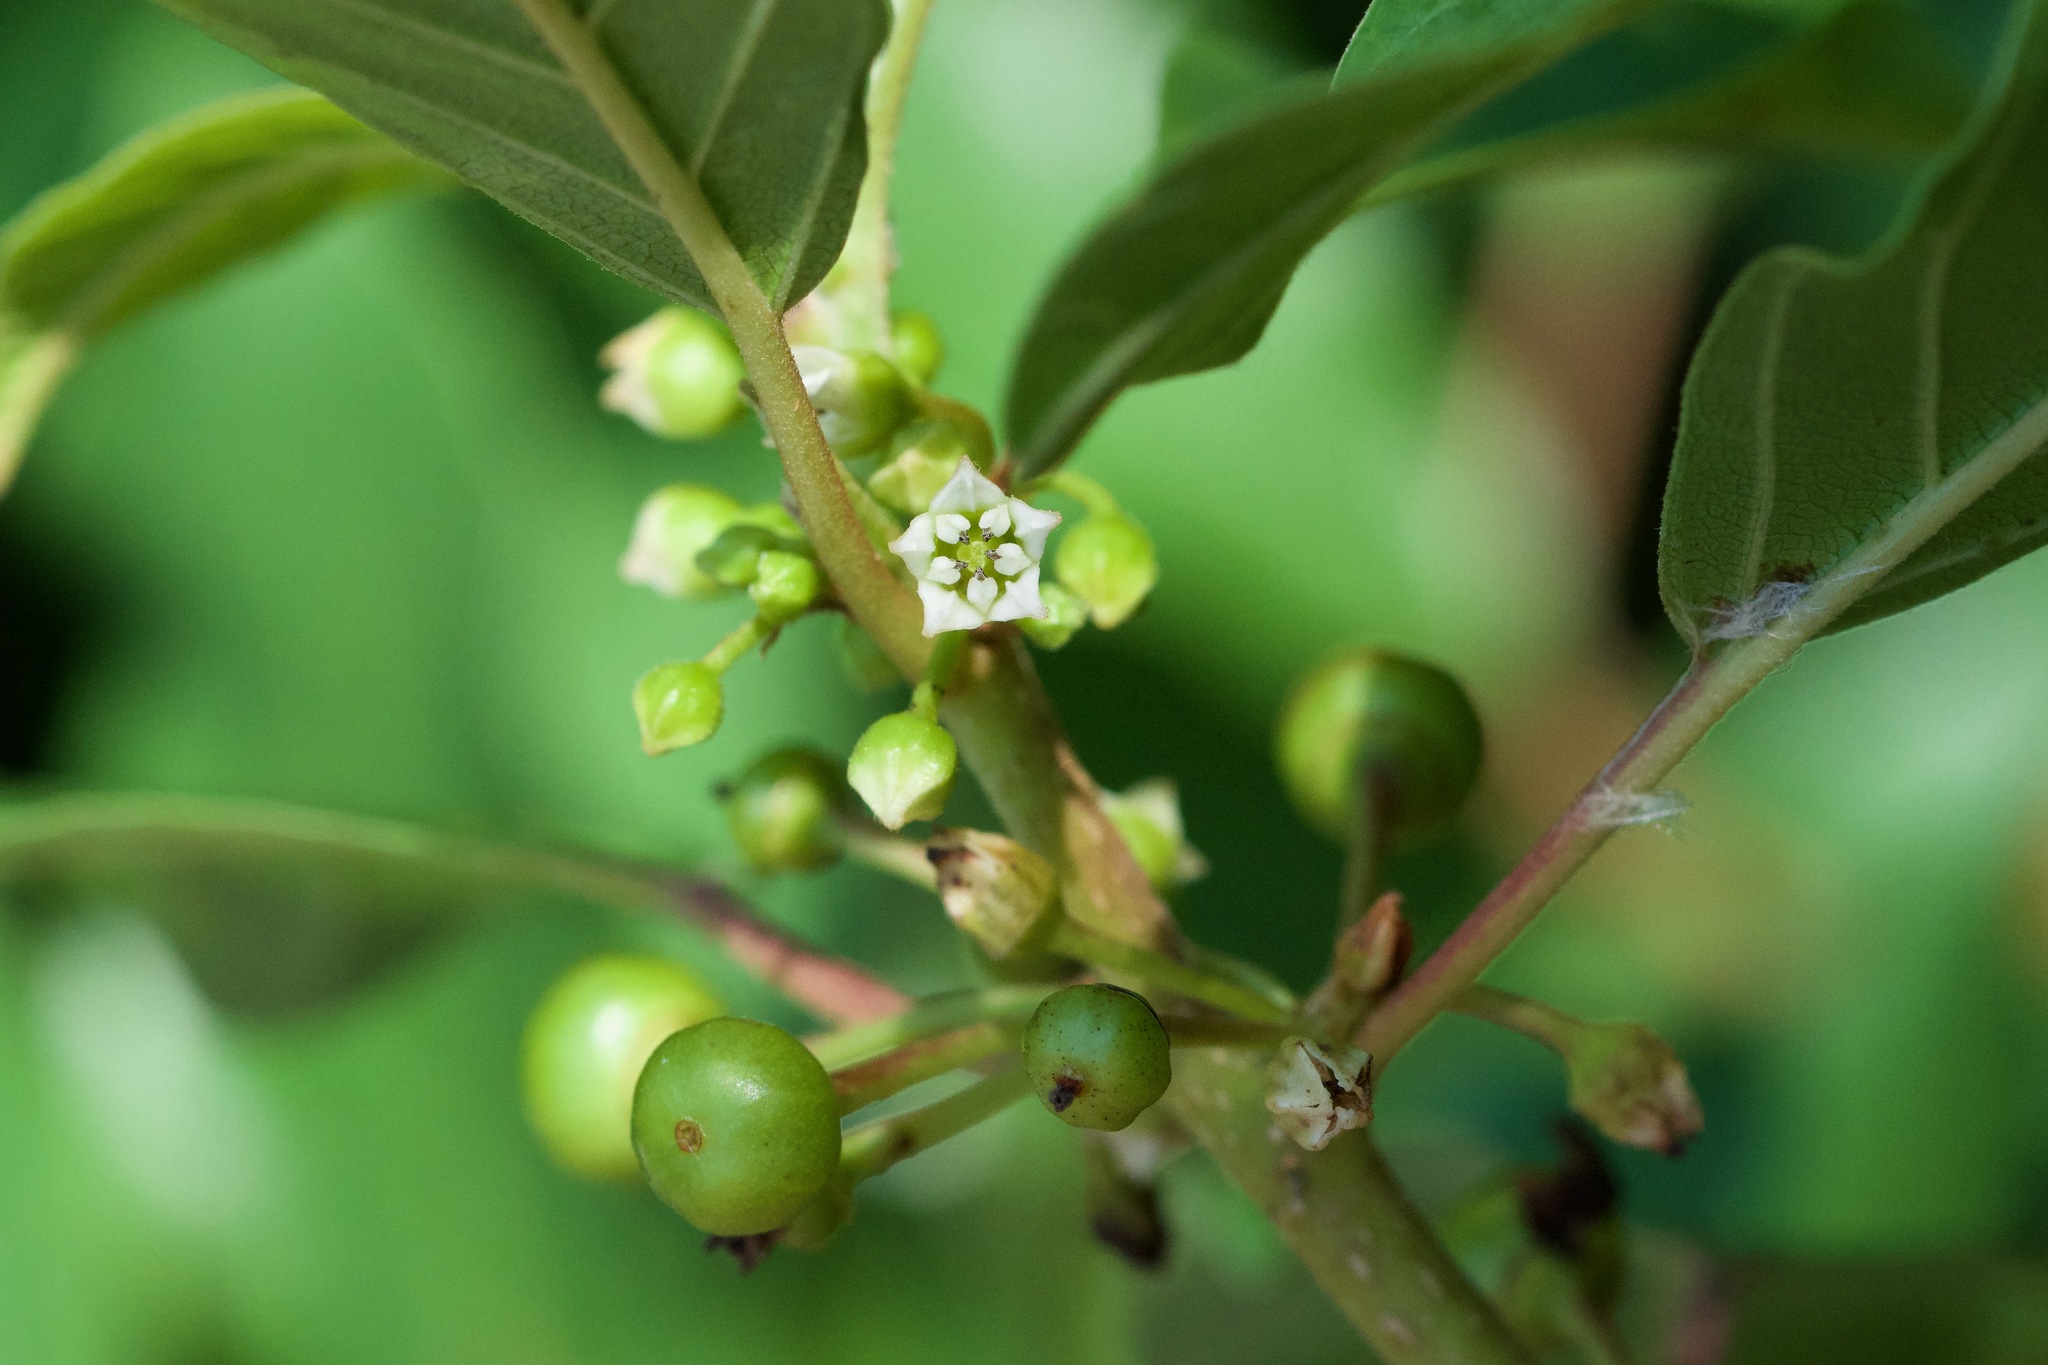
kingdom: Plantae
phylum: Tracheophyta
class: Magnoliopsida
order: Rosales
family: Rhamnaceae
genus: Frangula
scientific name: Frangula alnus
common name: Alder buckthorn
